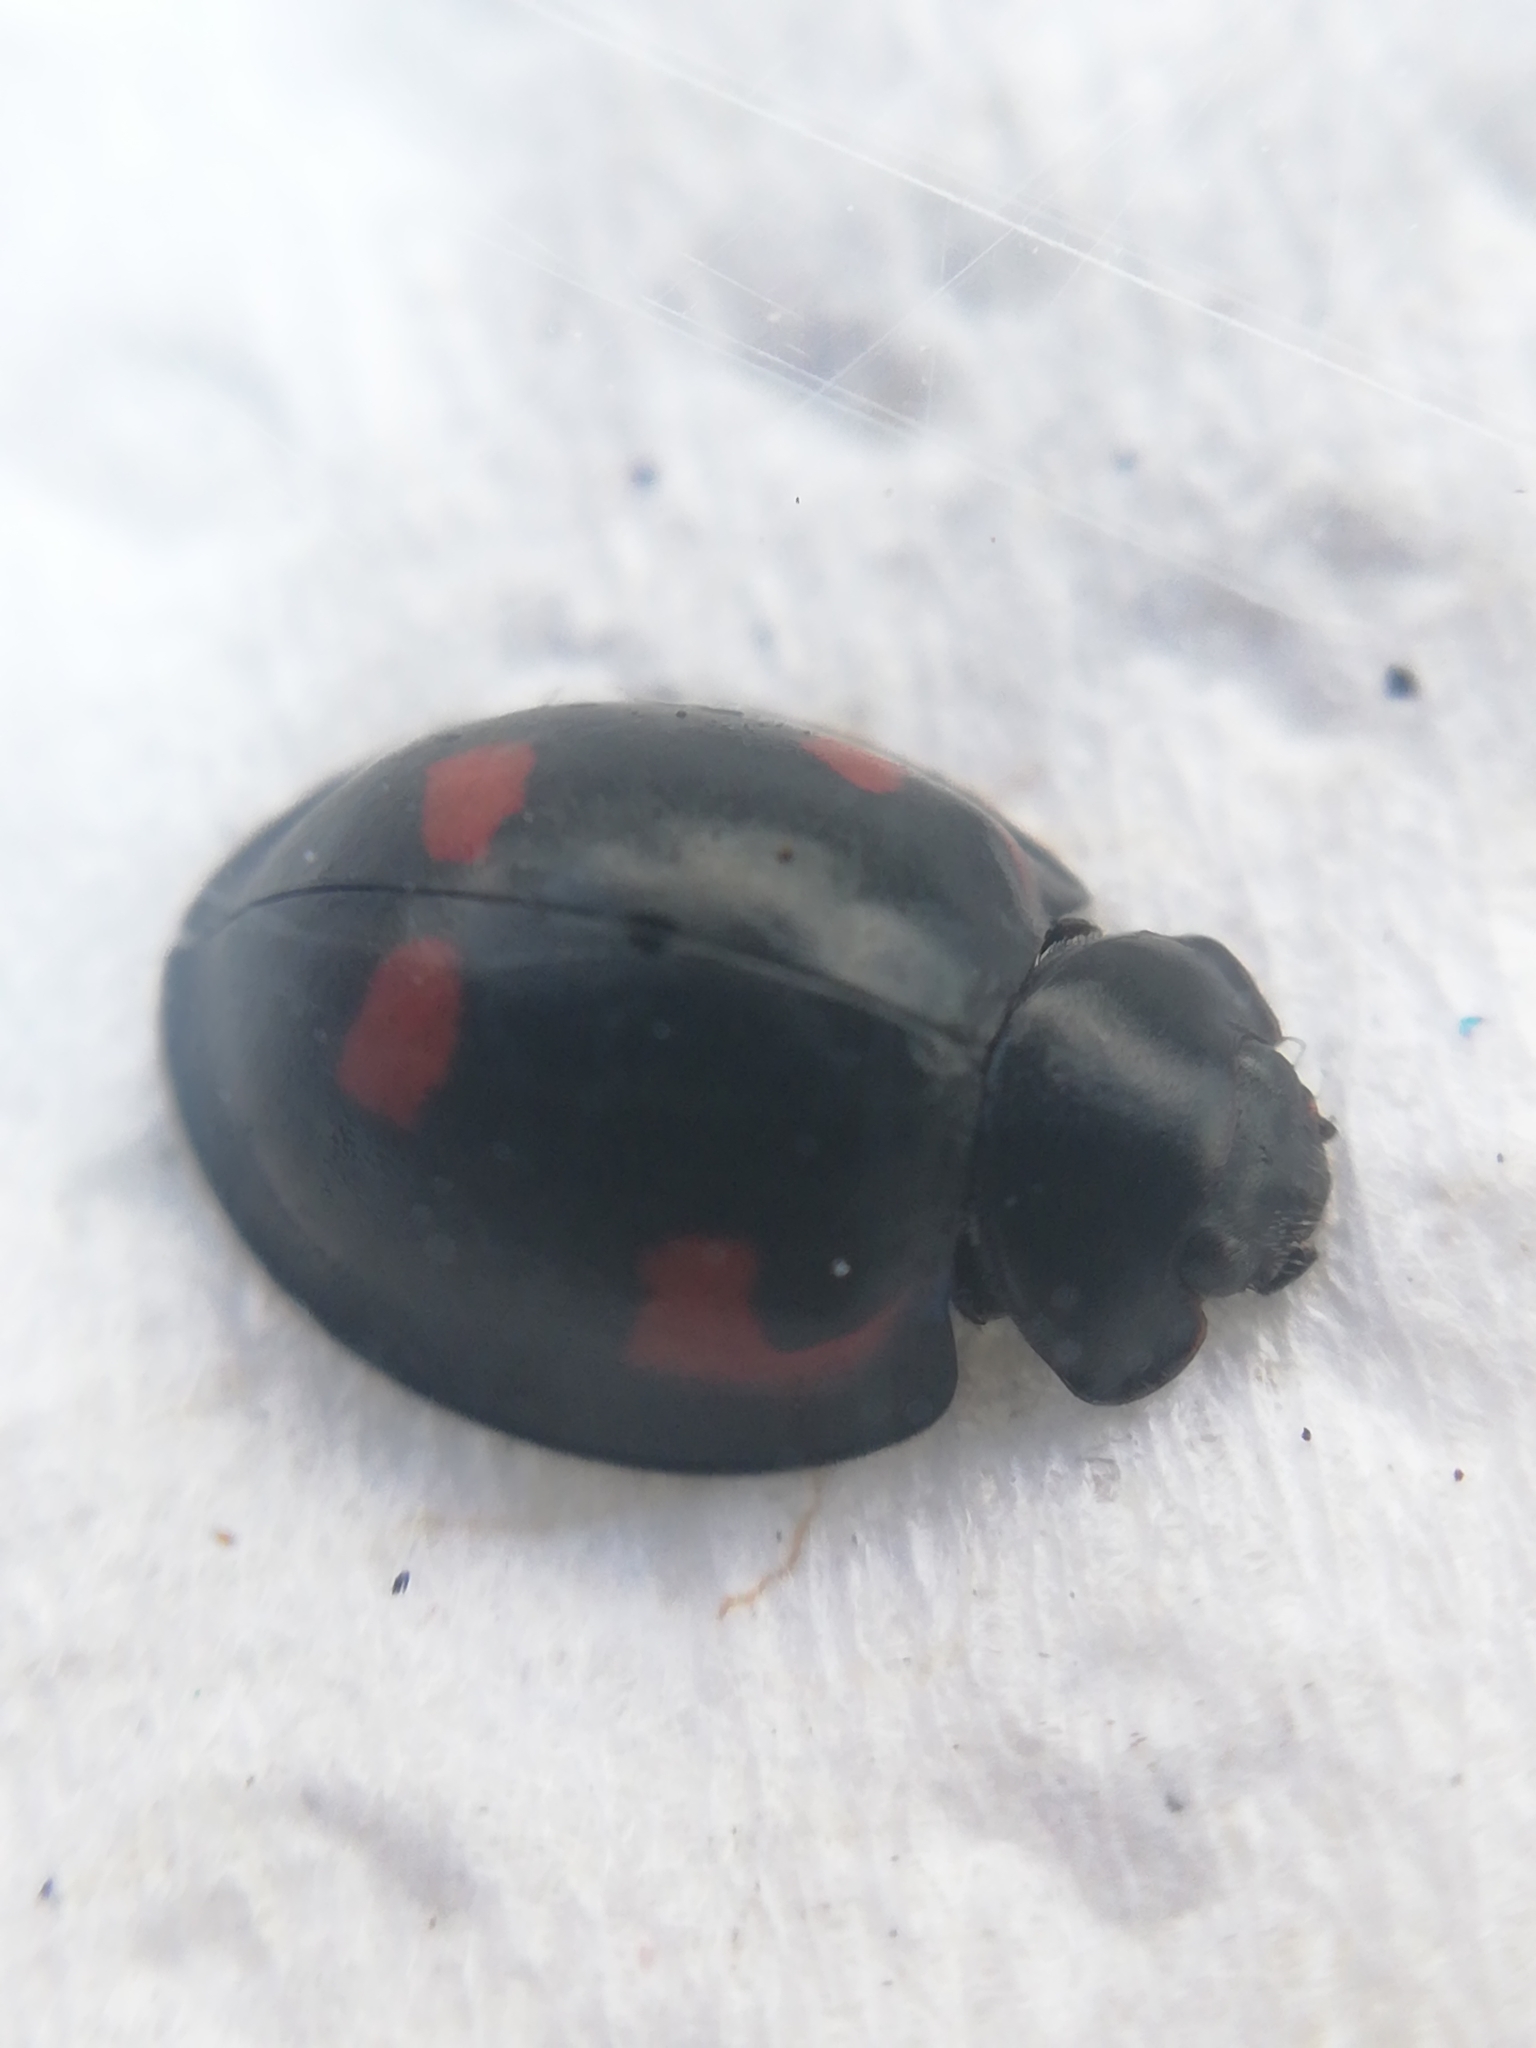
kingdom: Animalia
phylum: Arthropoda
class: Insecta
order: Coleoptera
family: Coccinellidae
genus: Brumus
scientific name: Brumus quadripustulatus
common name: Ladybird beetle
